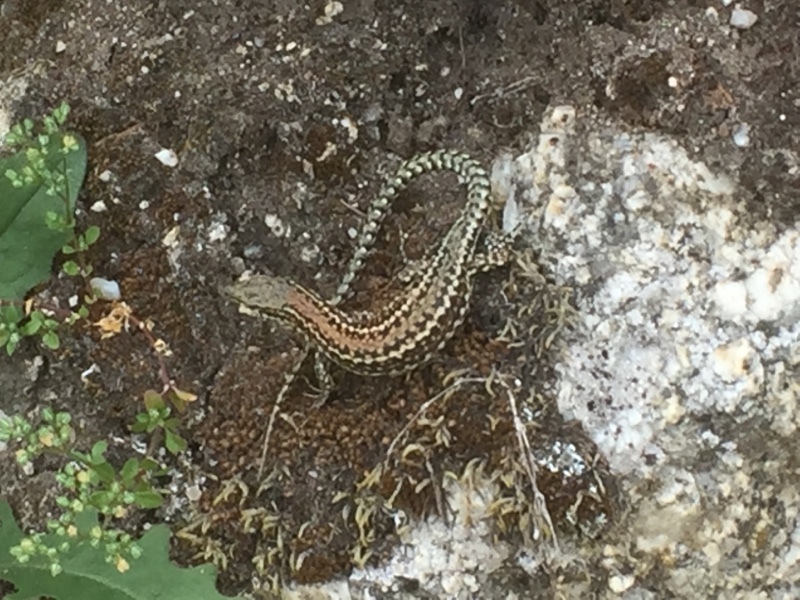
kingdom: Animalia
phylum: Chordata
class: Squamata
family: Lacertidae
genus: Podarcis
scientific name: Podarcis bocagei
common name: Bocage's wall lizard
